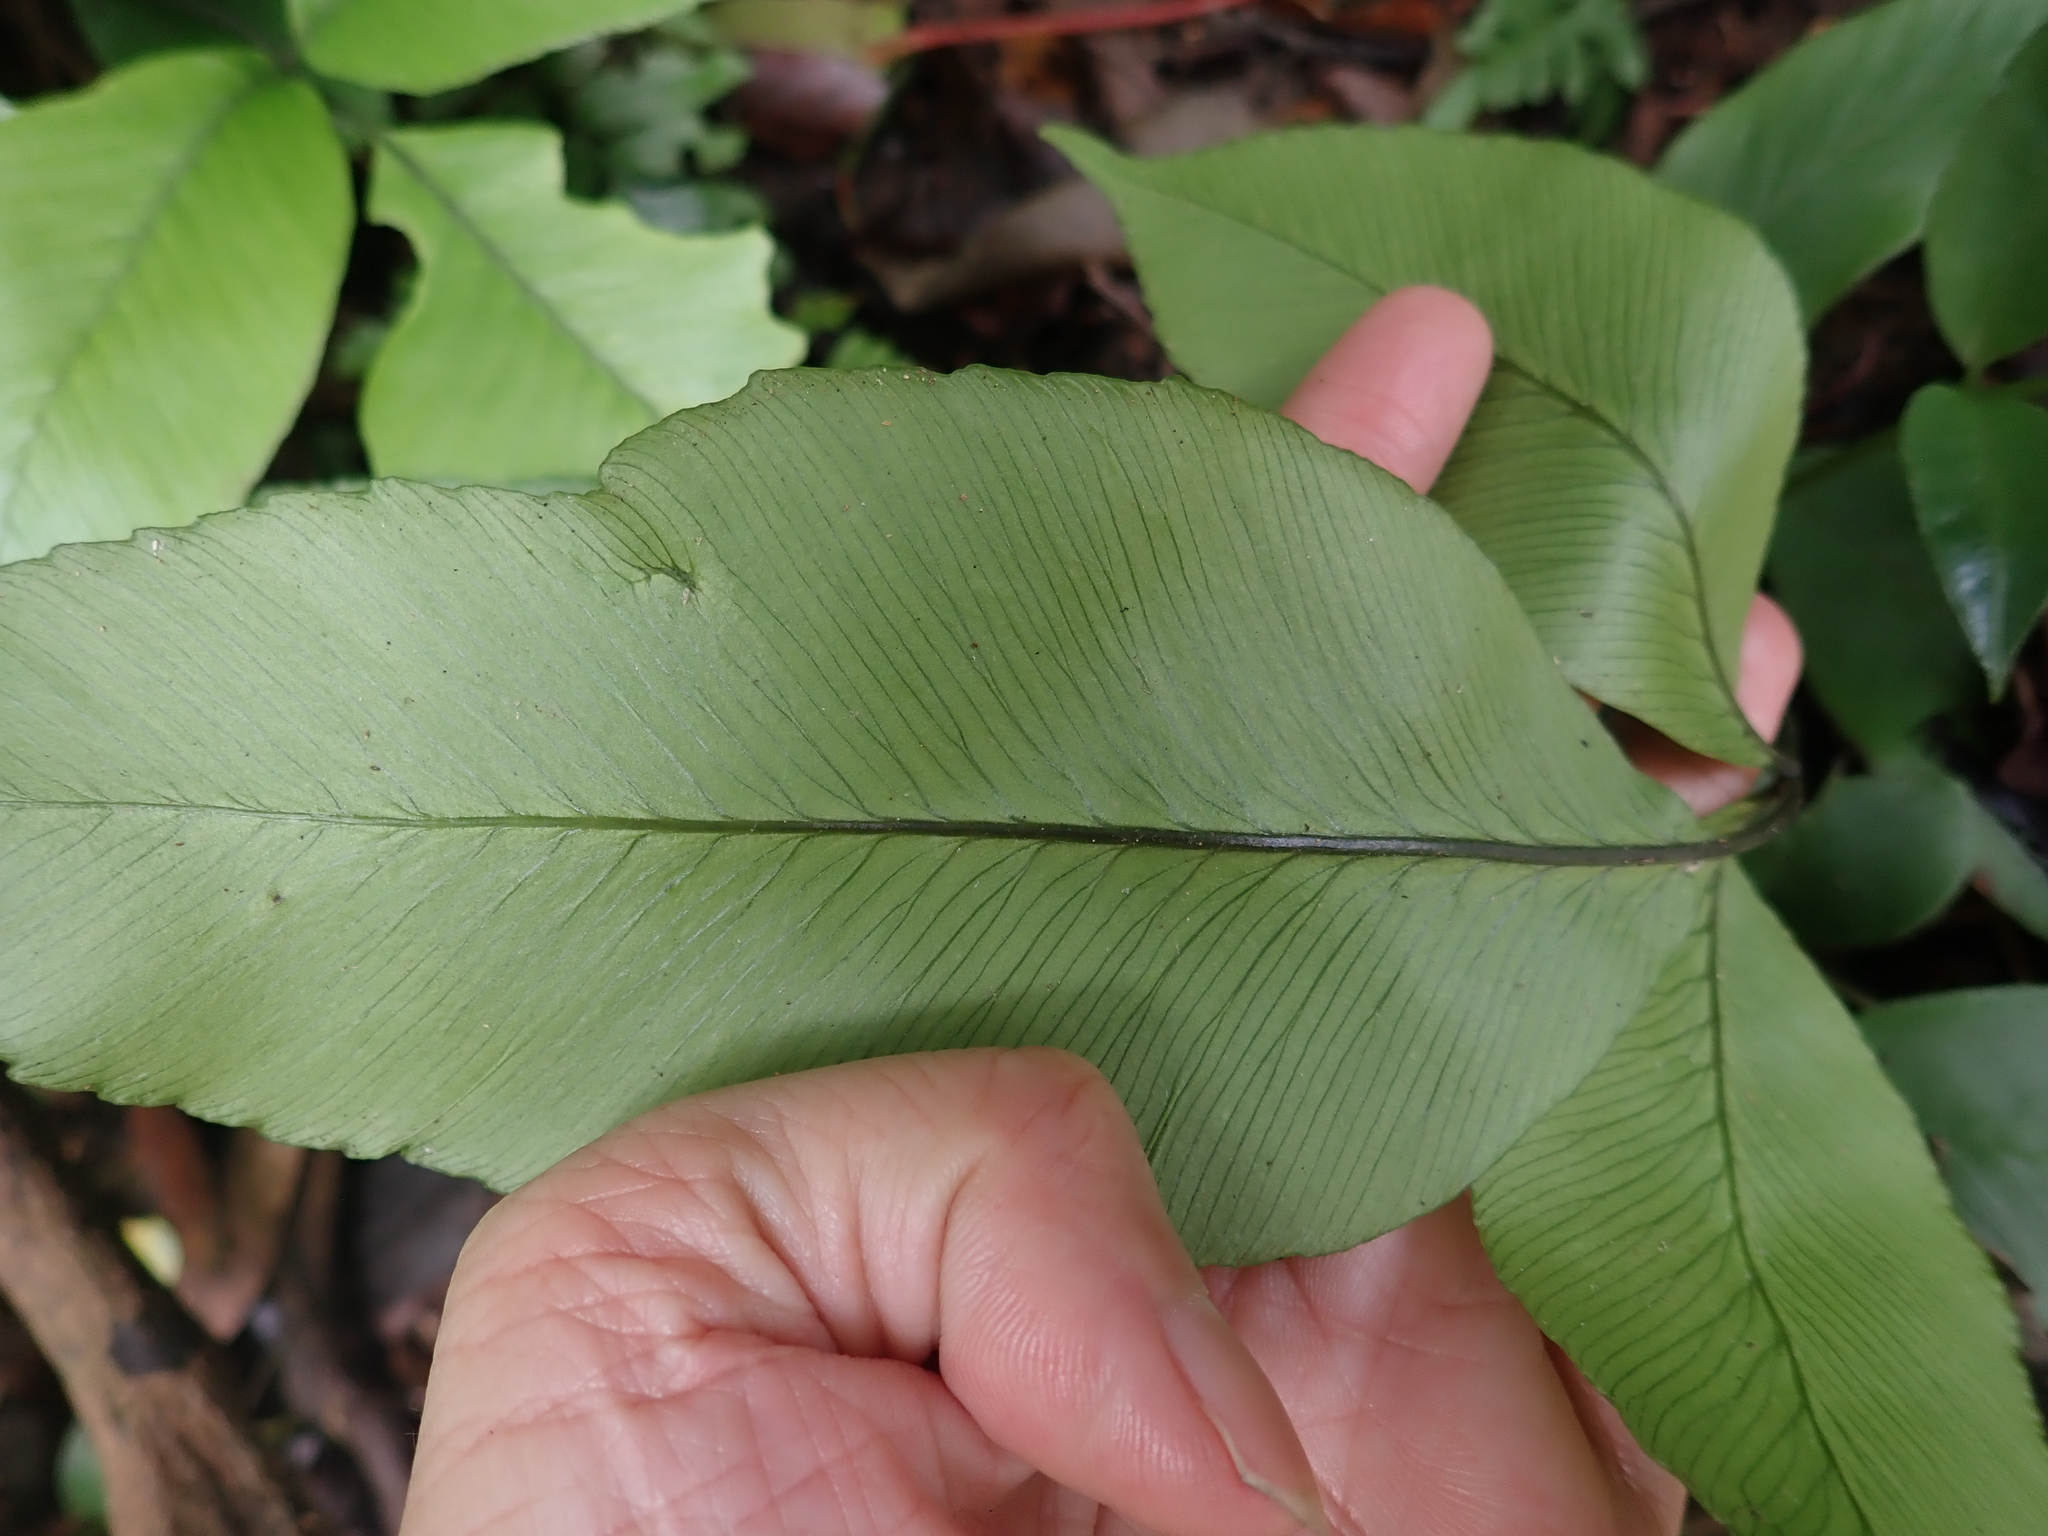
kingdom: Plantae
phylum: Tracheophyta
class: Polypodiopsida
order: Polypodiales
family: Athyriaceae
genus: Diplazium
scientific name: Diplazium lineolatum
